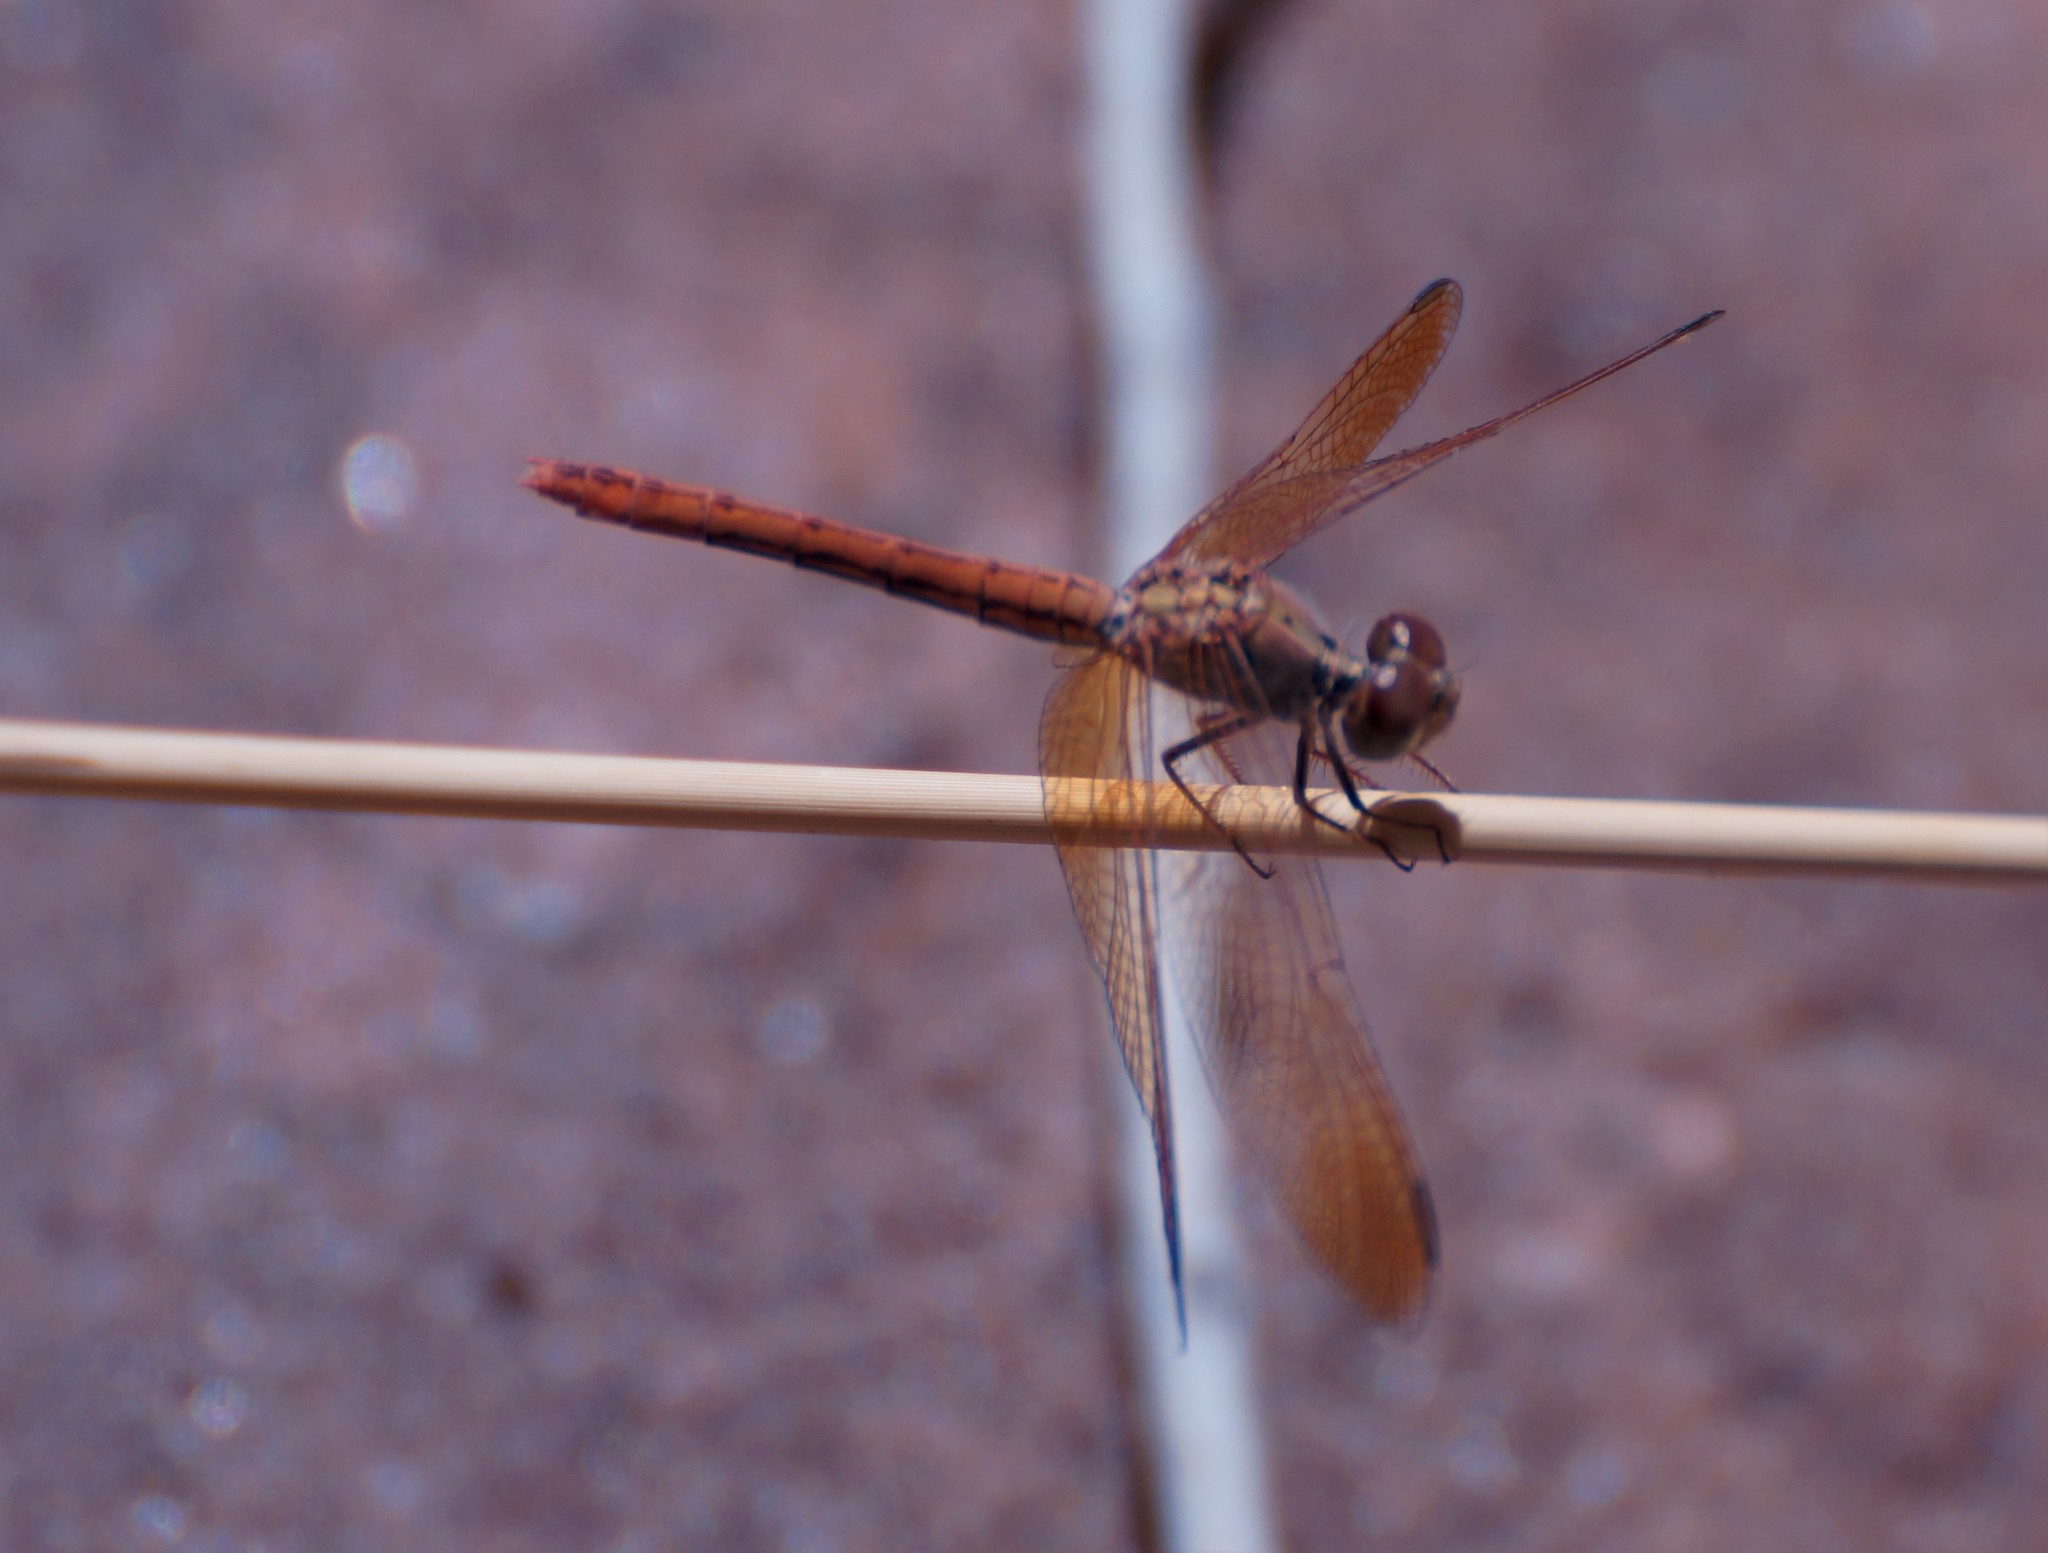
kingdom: Animalia
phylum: Arthropoda
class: Insecta
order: Odonata
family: Libellulidae
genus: Diplacodes
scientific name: Diplacodes haematodes
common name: Scarlet percher
